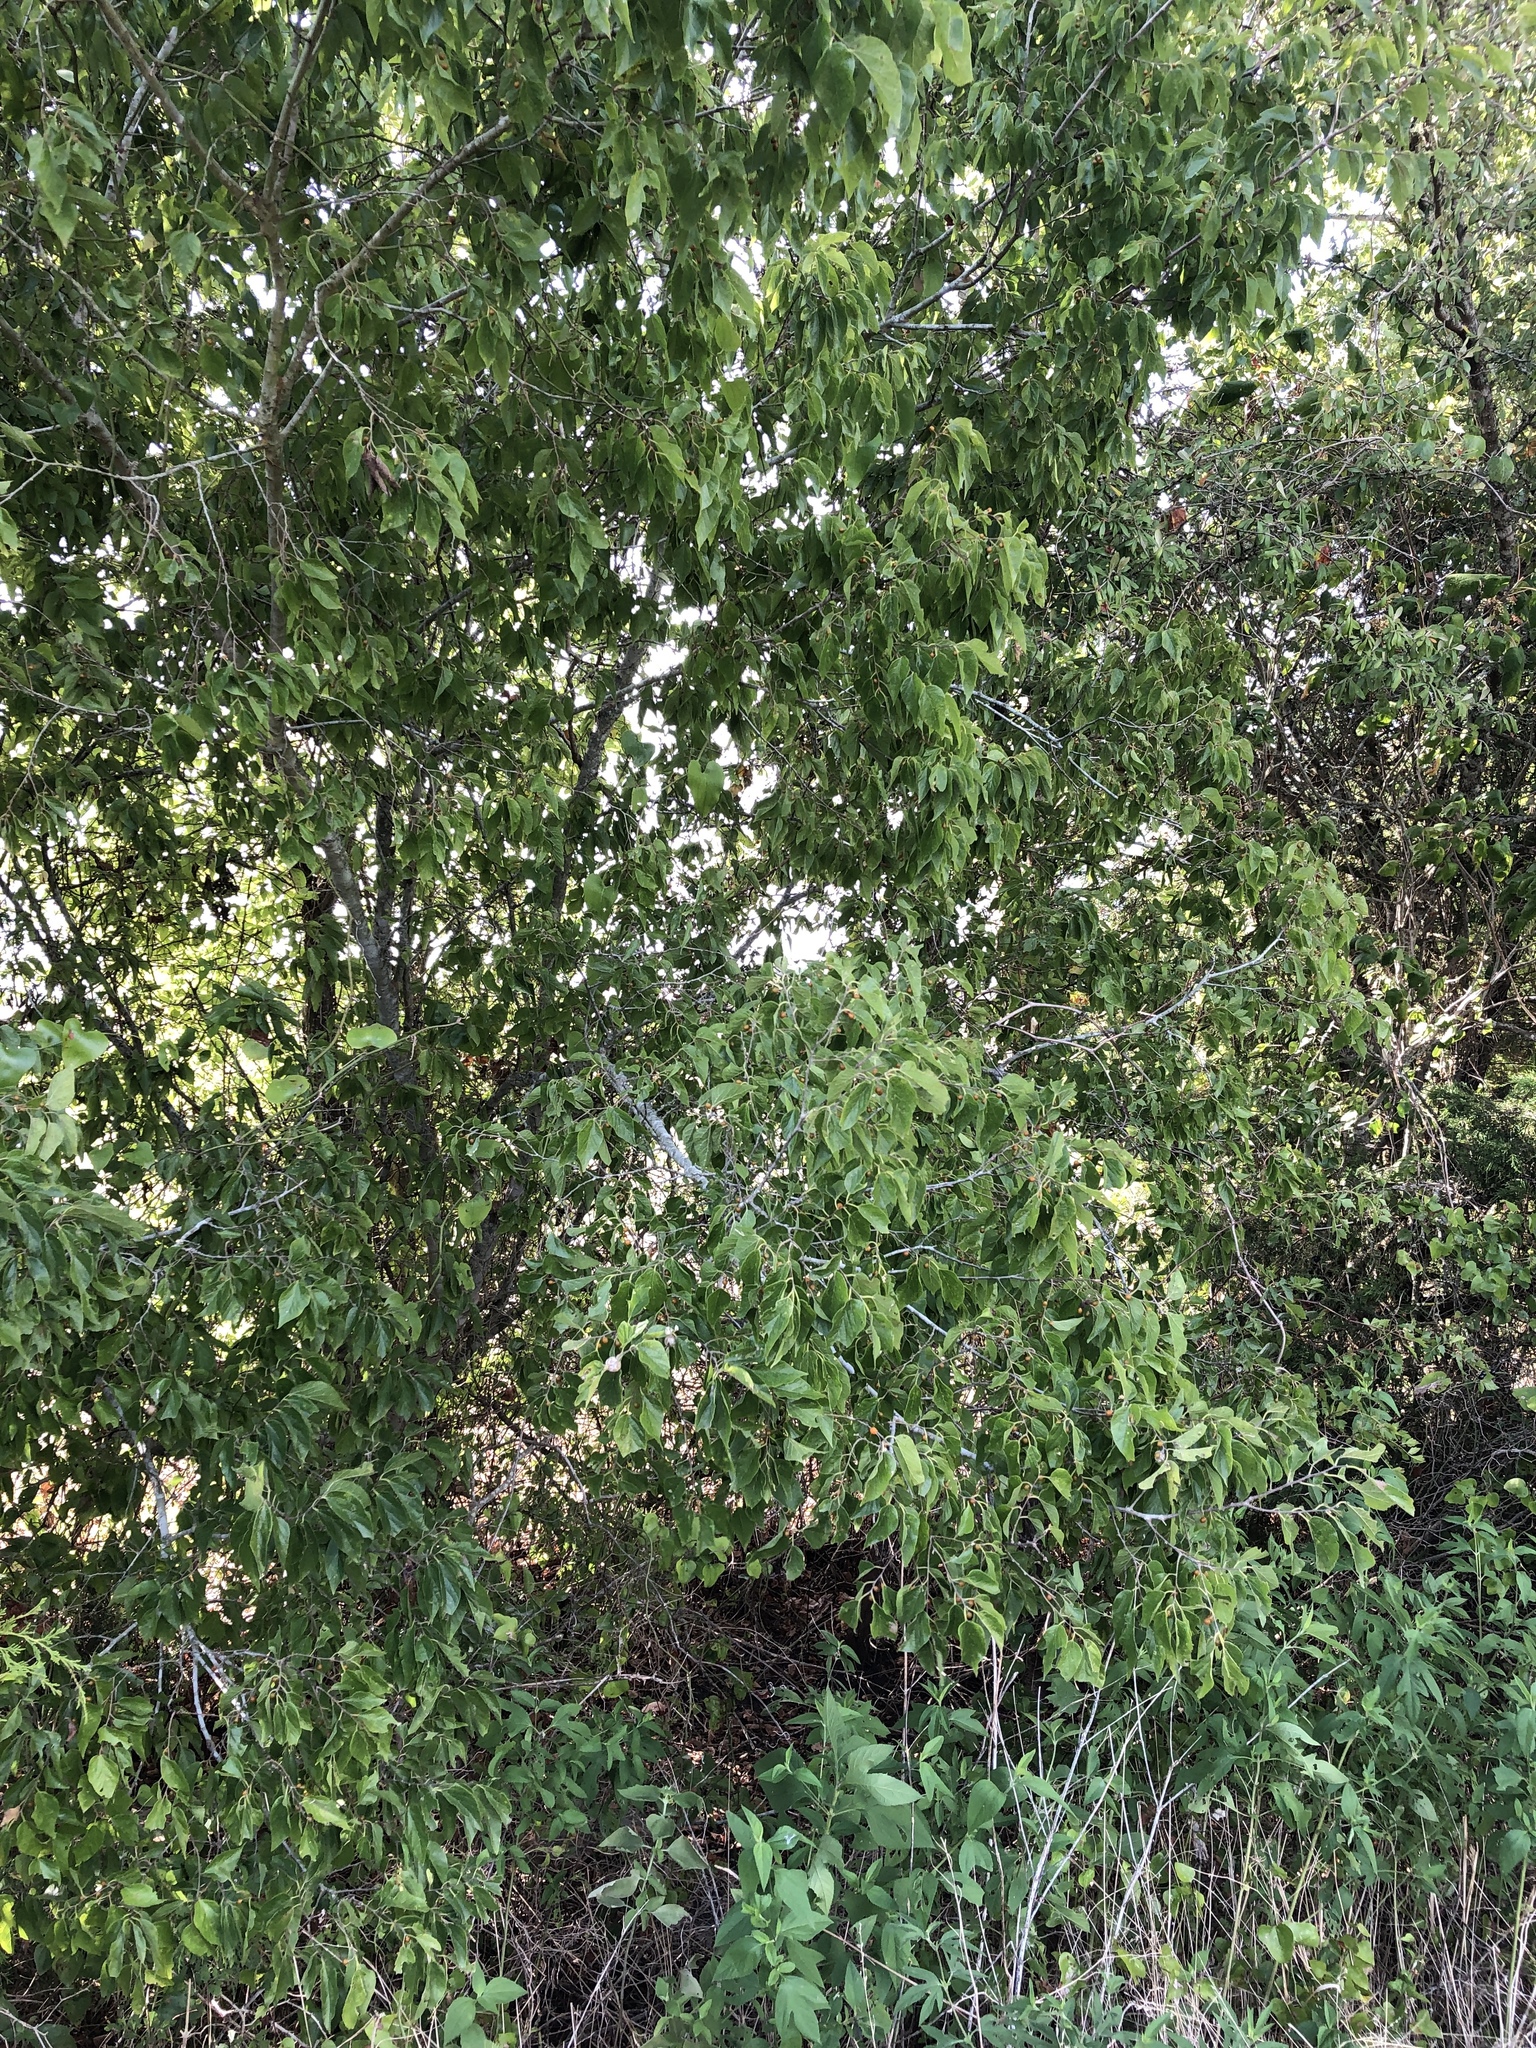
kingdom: Plantae
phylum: Tracheophyta
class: Magnoliopsida
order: Rosales
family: Cannabaceae
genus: Celtis
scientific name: Celtis laevigata
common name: Sugarberry
